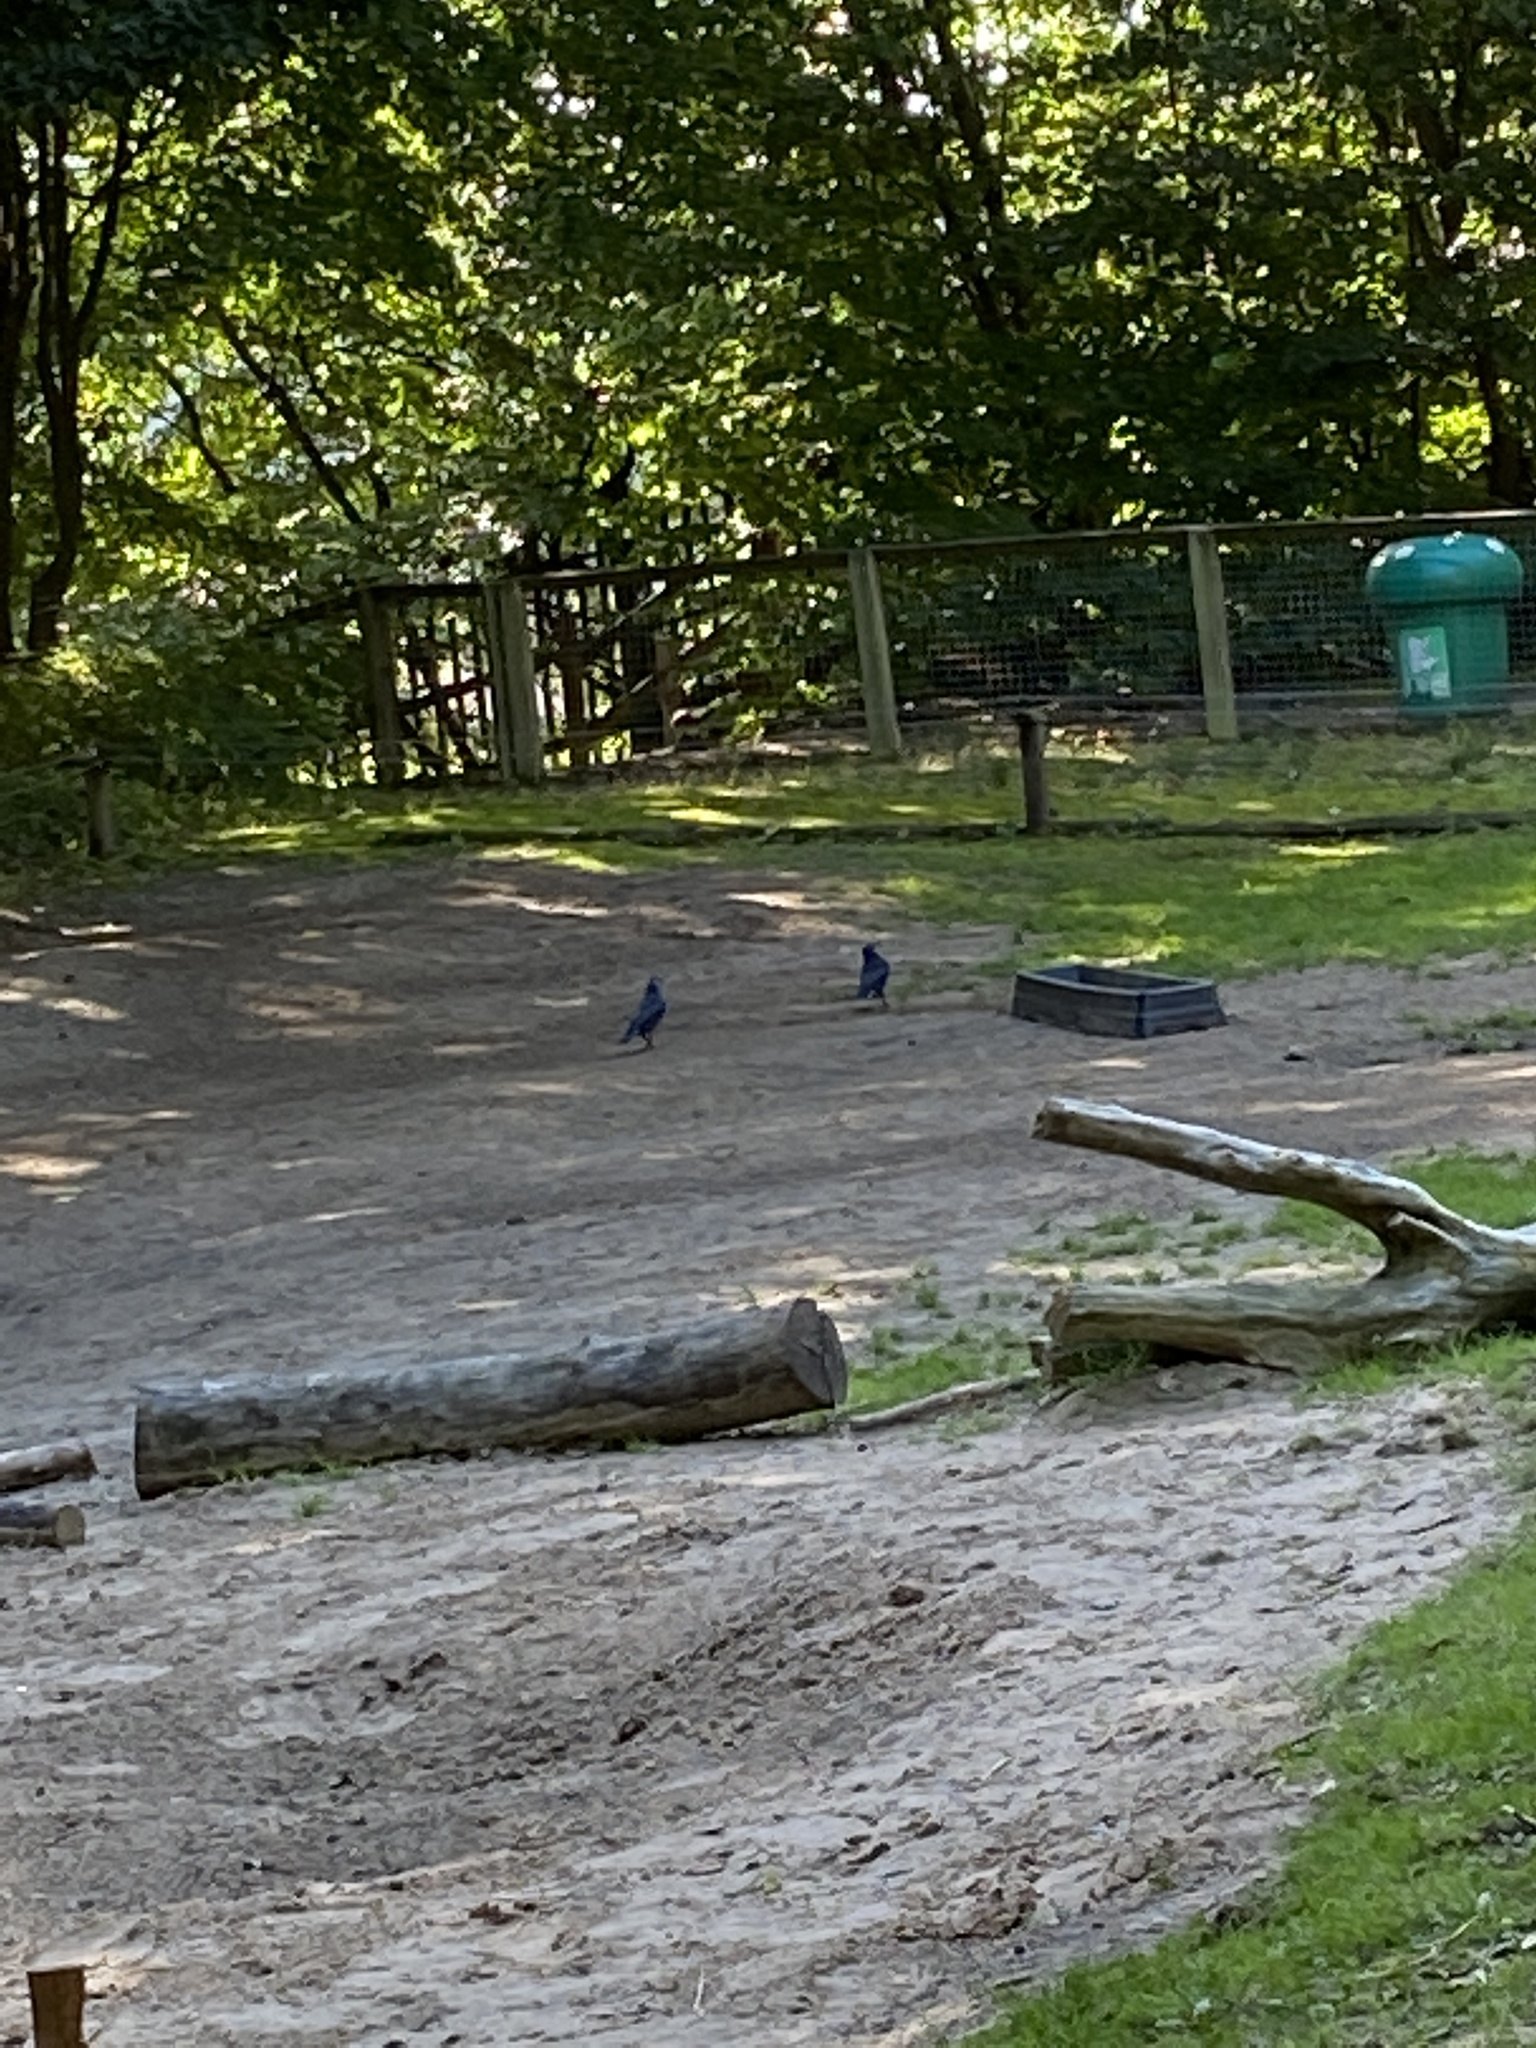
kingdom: Animalia
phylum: Chordata
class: Aves
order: Passeriformes
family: Corvidae
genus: Corvus
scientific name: Corvus corone
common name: Carrion crow
